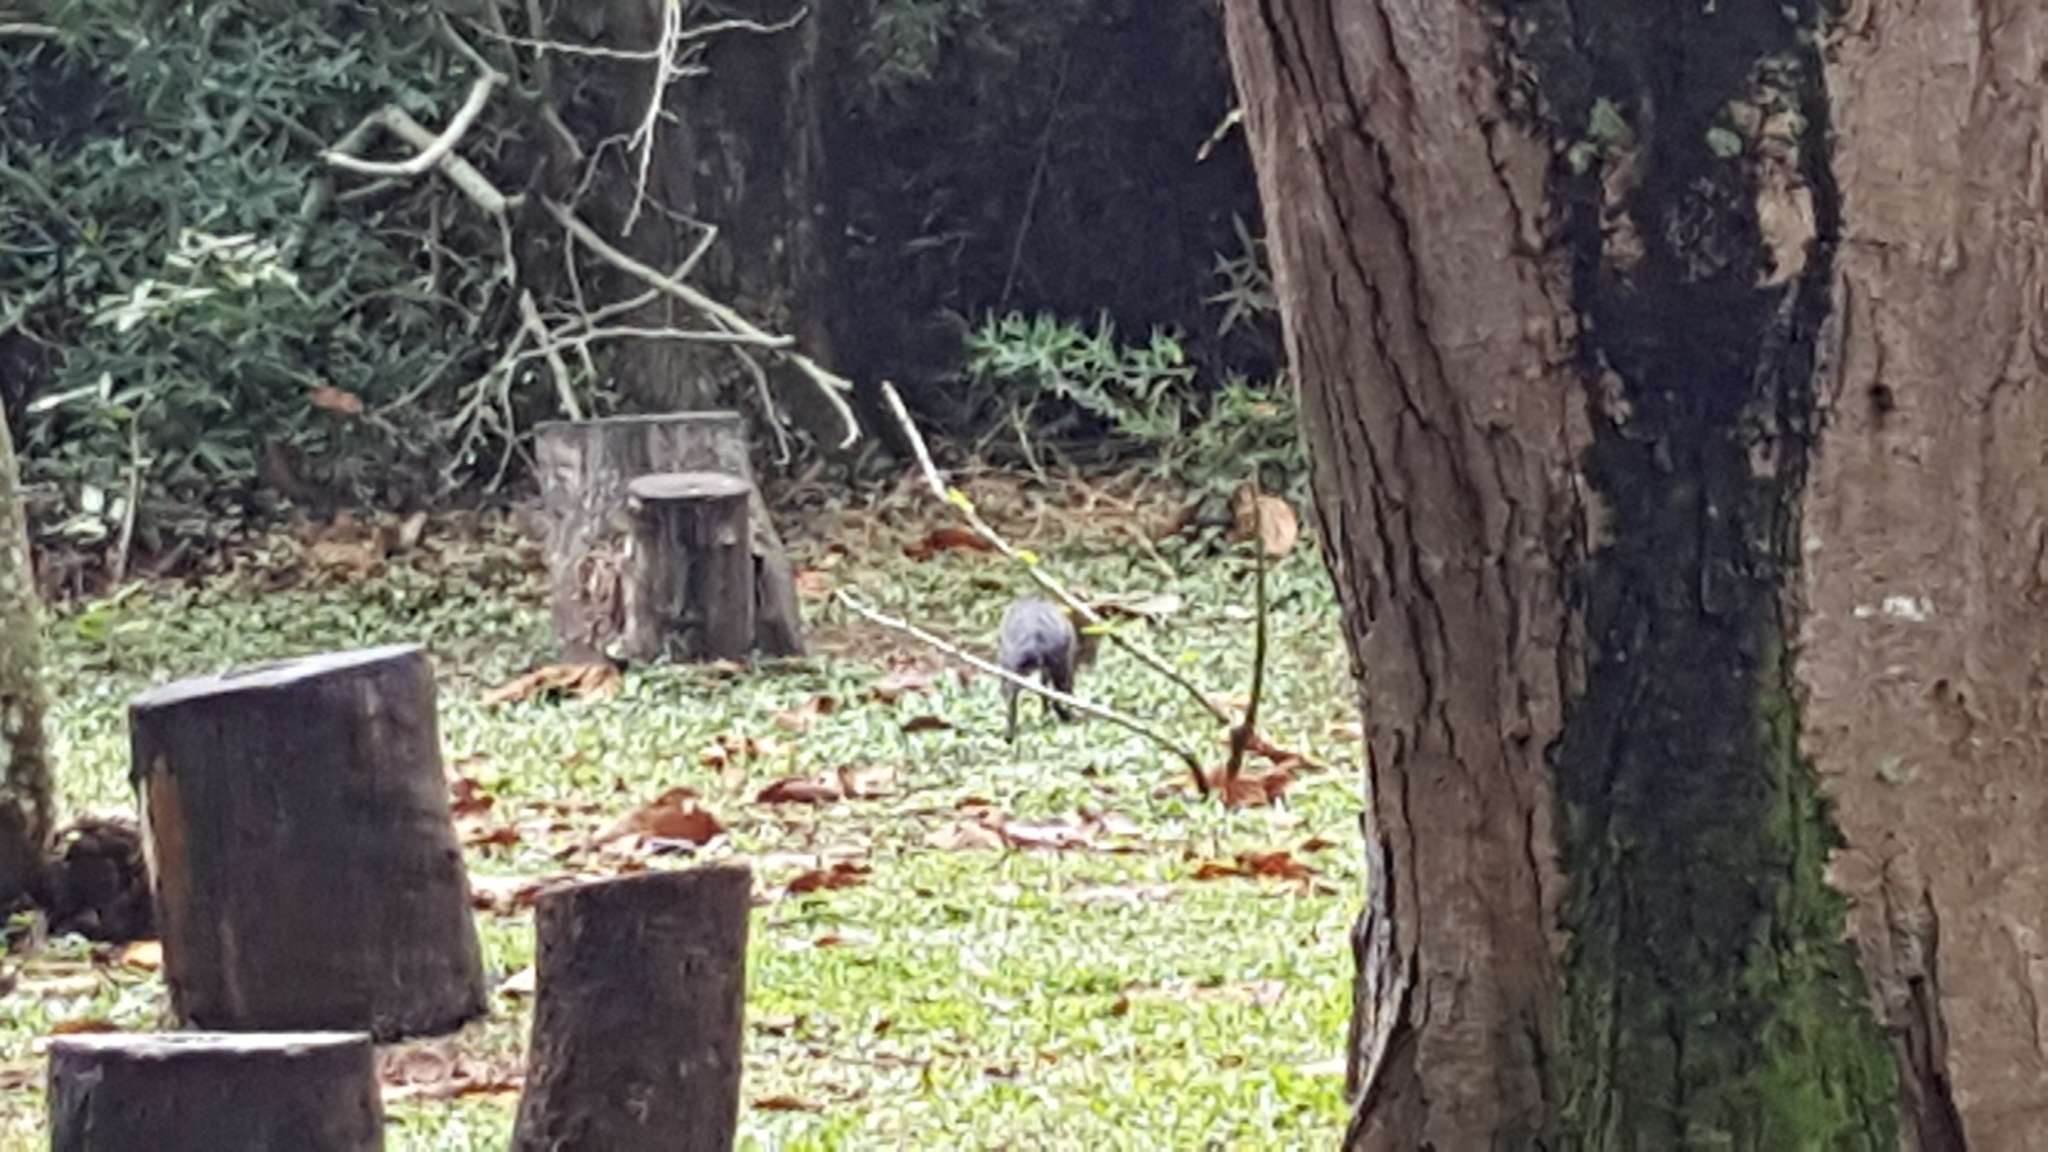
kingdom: Animalia
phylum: Chordata
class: Mammalia
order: Rodentia
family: Dasyproctidae
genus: Dasyprocta
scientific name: Dasyprocta punctata
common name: Central american agouti
